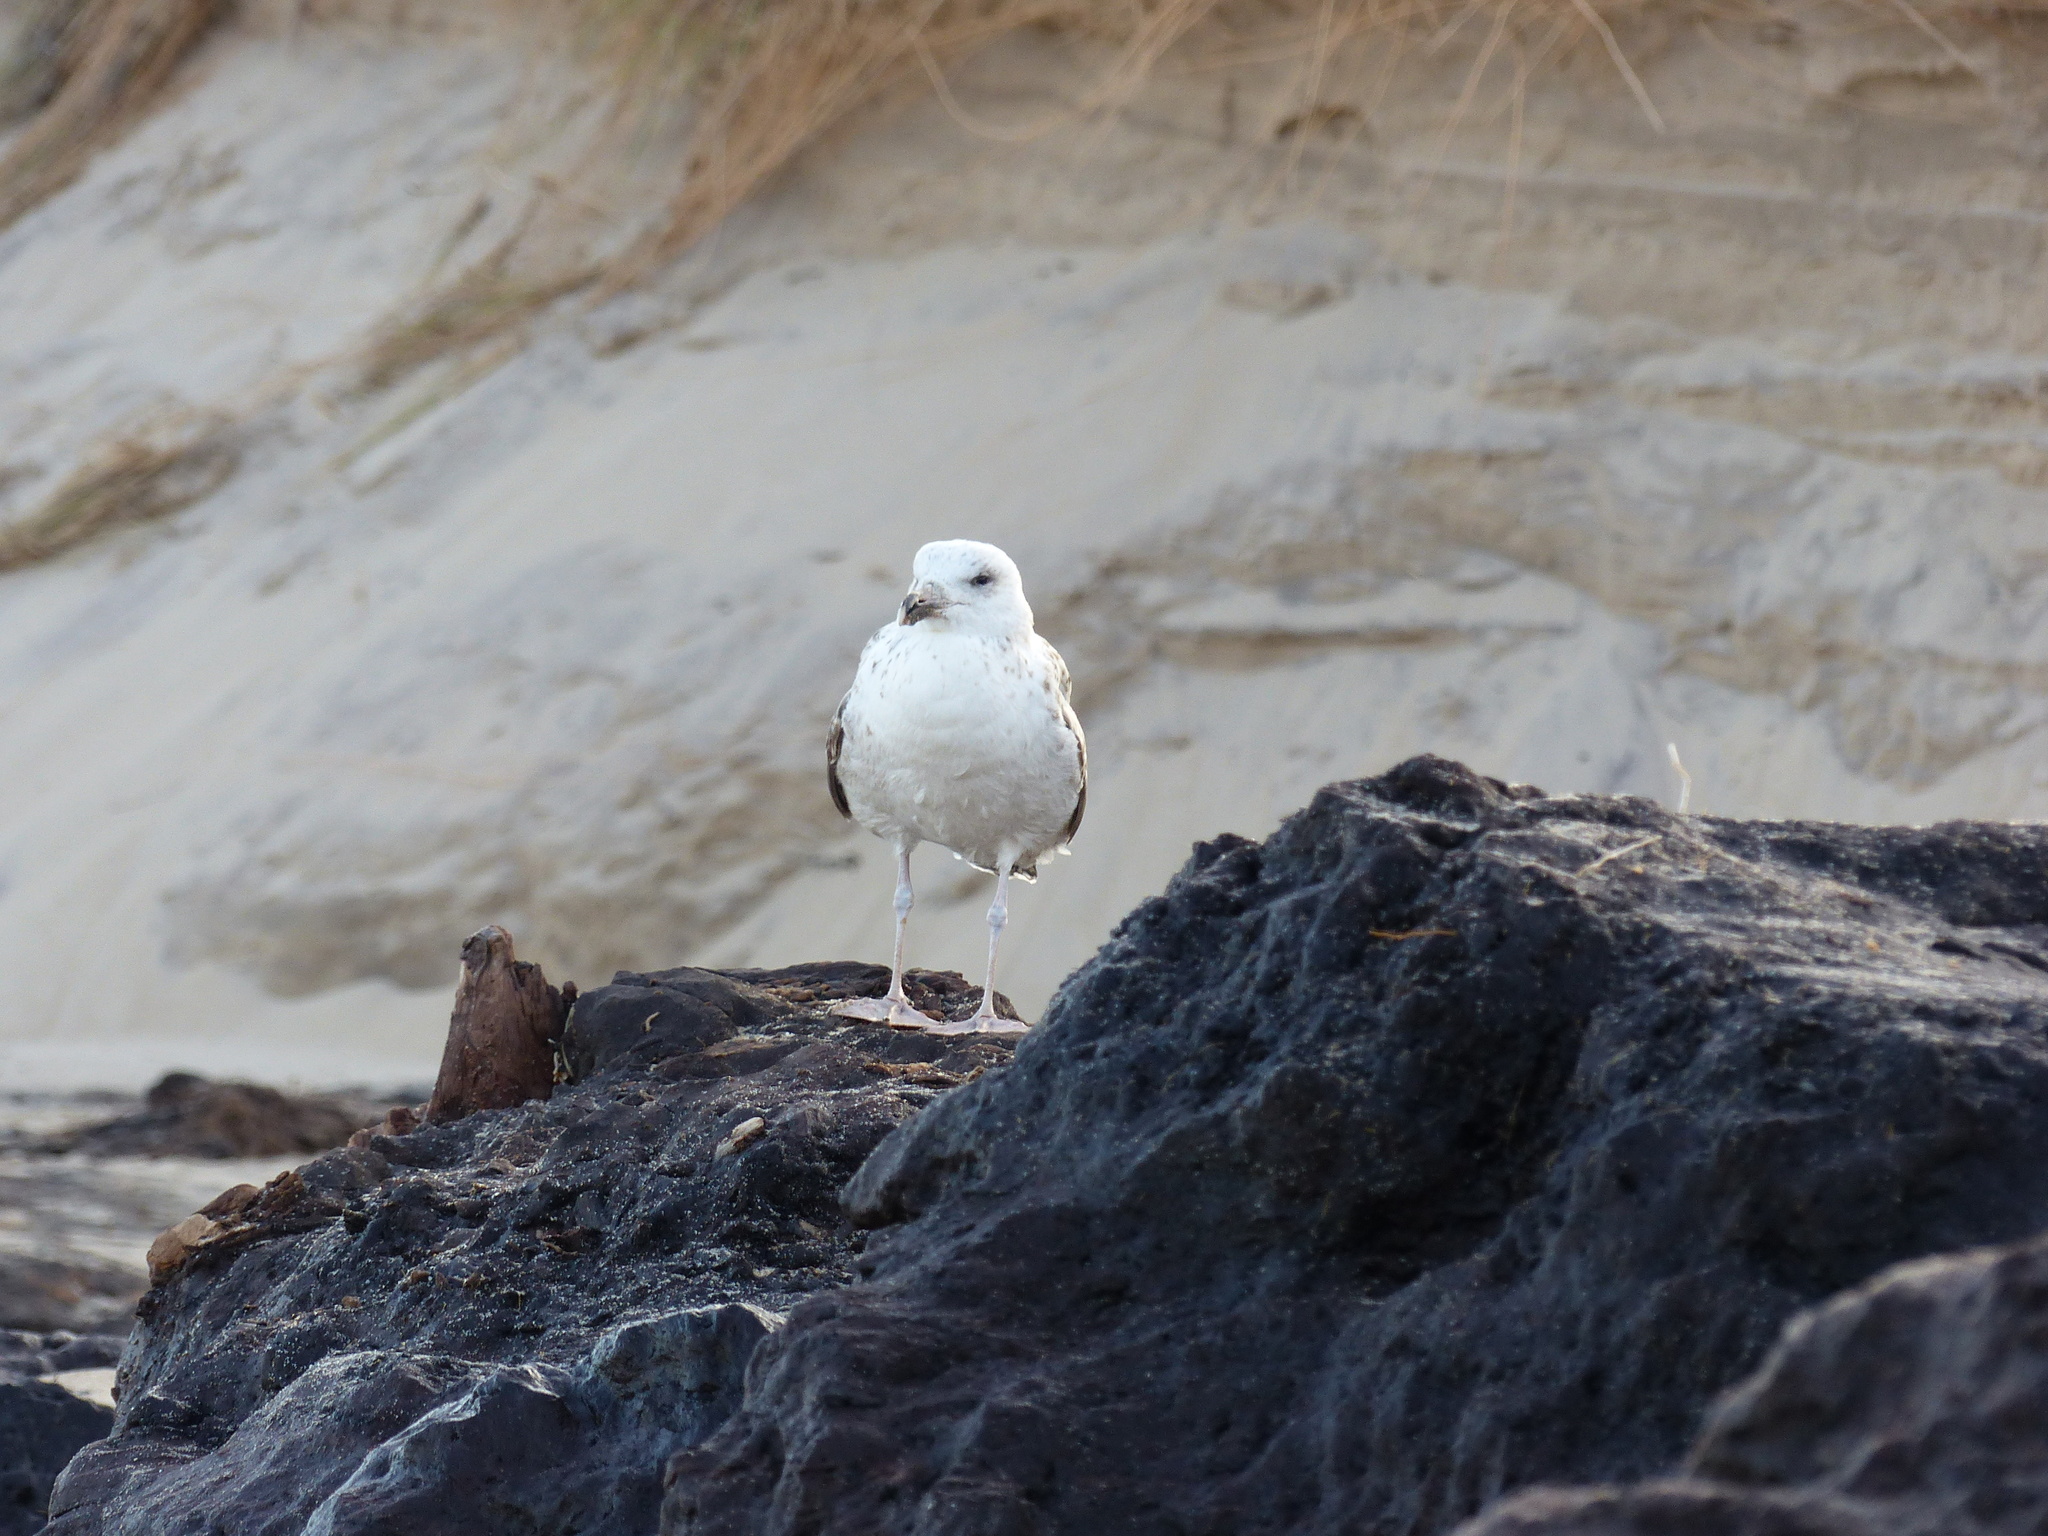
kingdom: Animalia
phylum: Chordata
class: Aves
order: Charadriiformes
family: Laridae
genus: Larus
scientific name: Larus marinus
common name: Great black-backed gull
